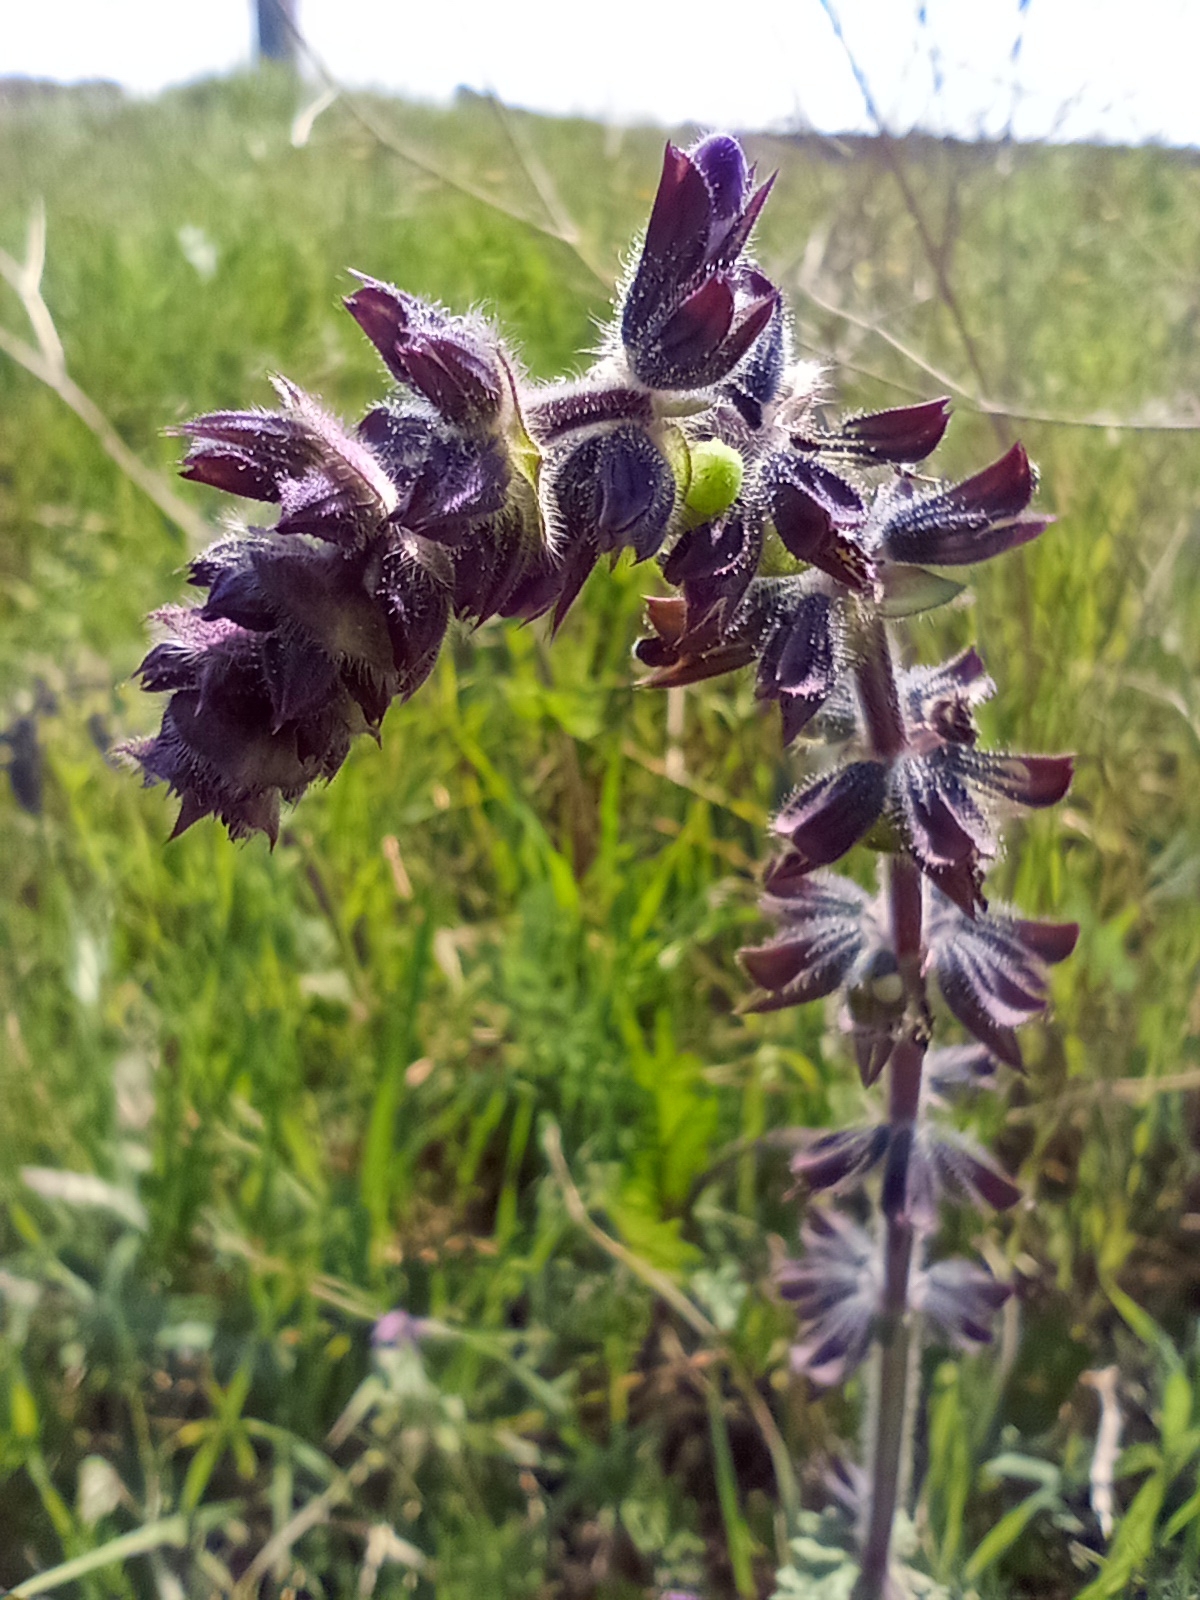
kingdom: Plantae
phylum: Tracheophyta
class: Magnoliopsida
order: Lamiales
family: Lamiaceae
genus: Salvia
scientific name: Salvia verbenaca
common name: Wild clary
